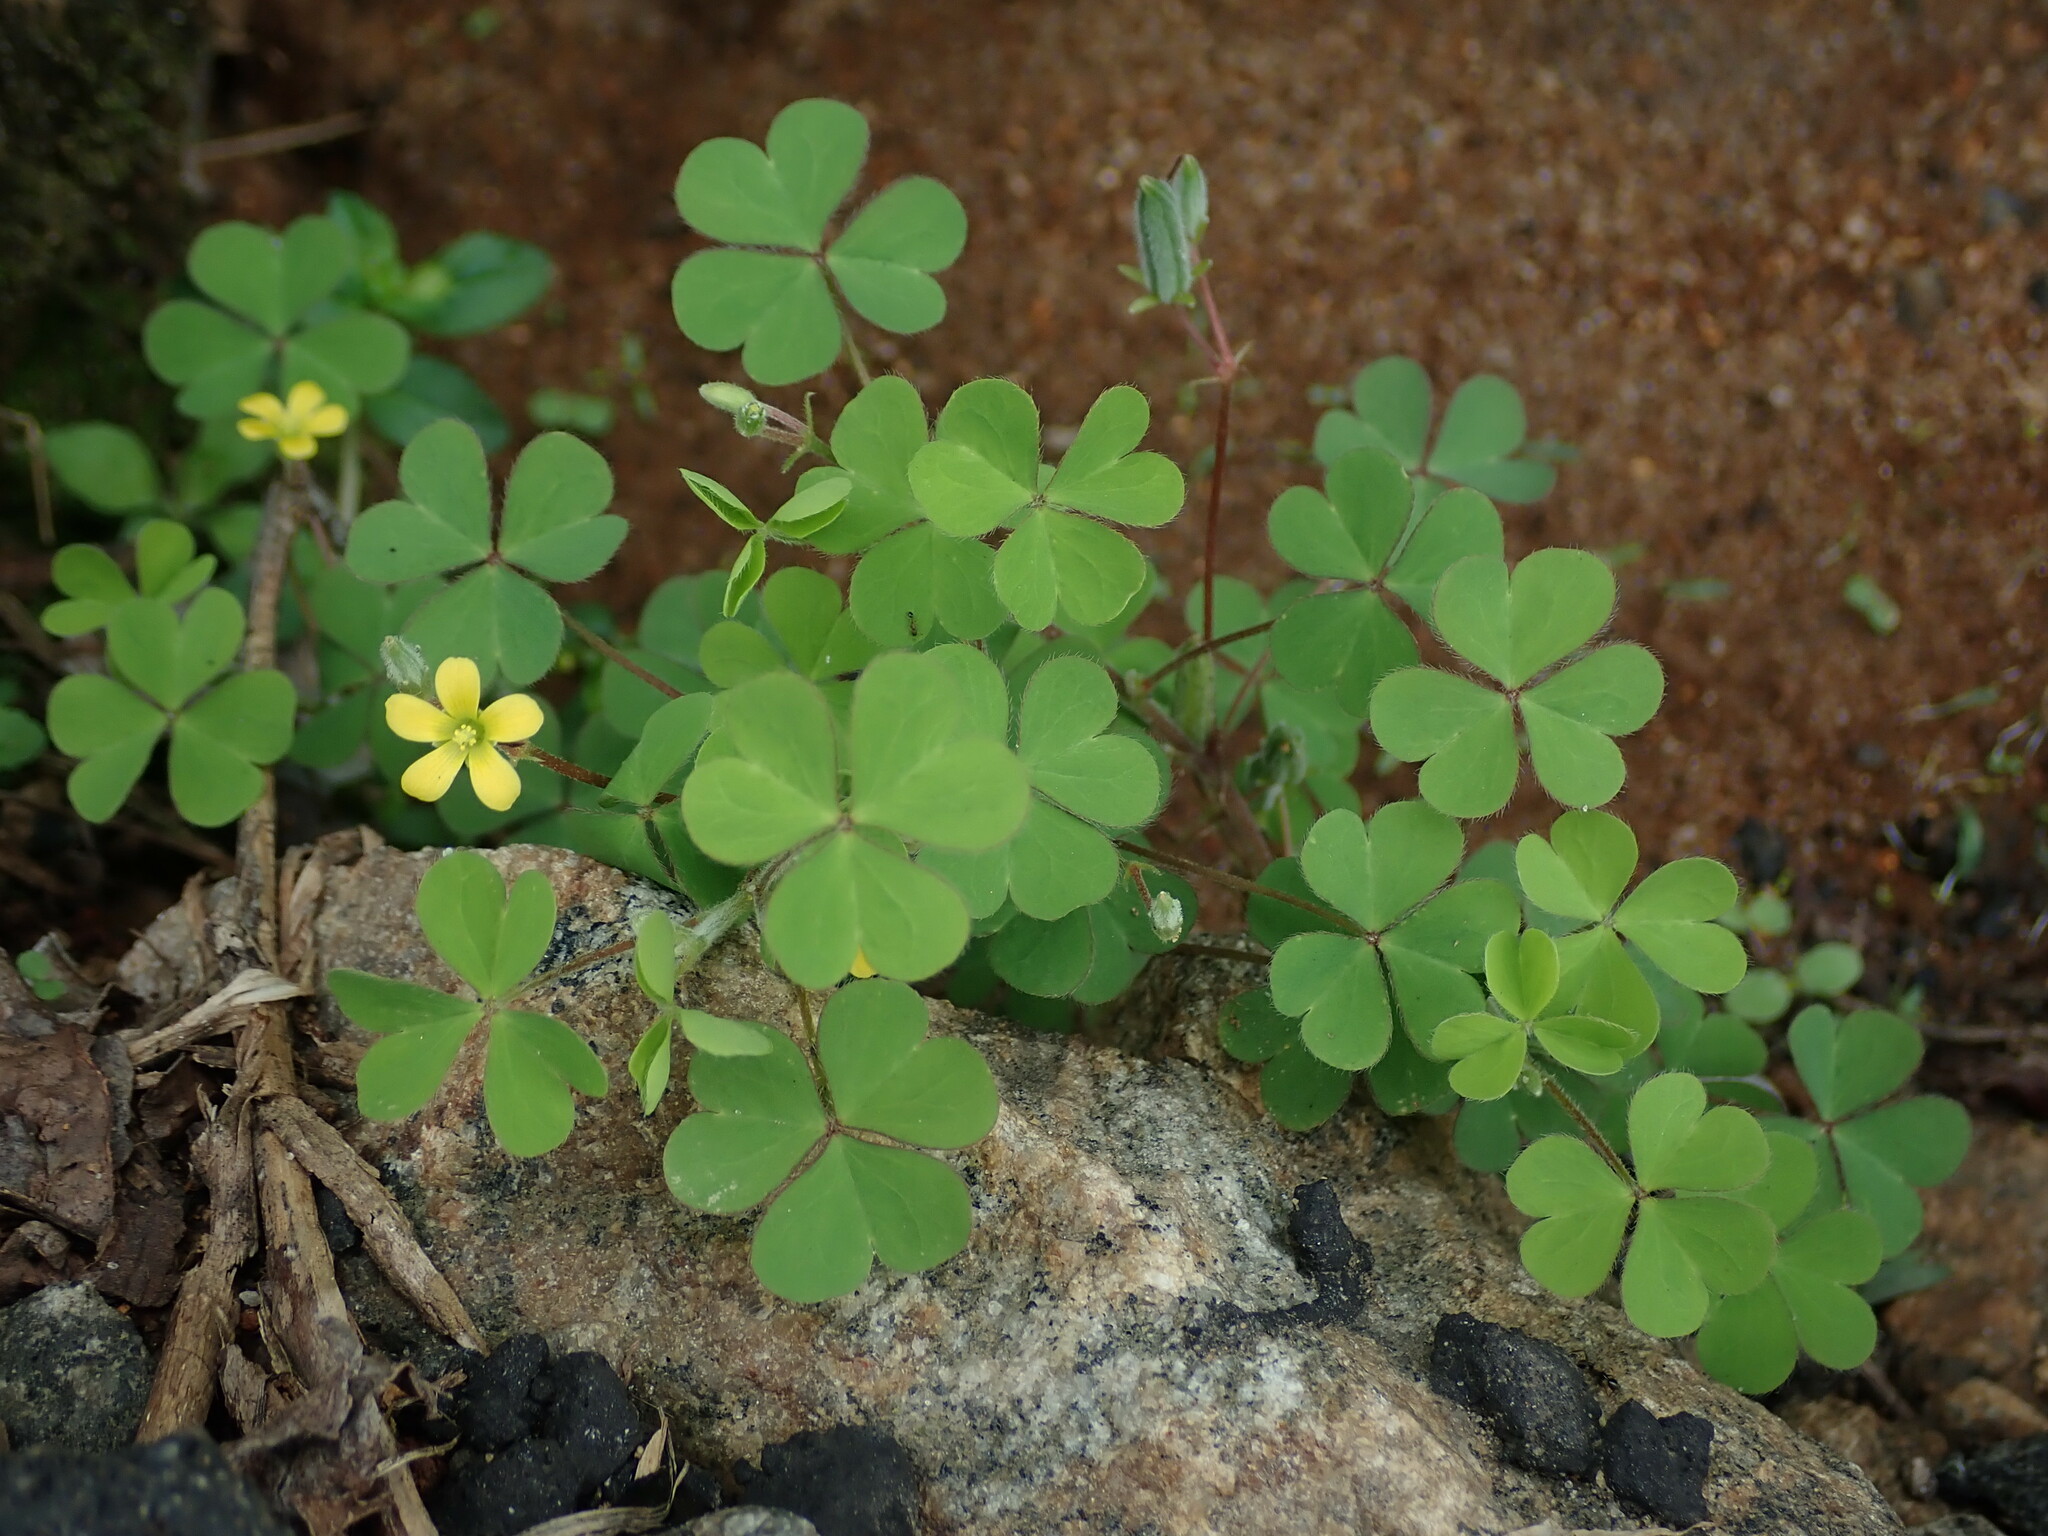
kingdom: Plantae
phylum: Tracheophyta
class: Magnoliopsida
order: Oxalidales
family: Oxalidaceae
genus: Oxalis
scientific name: Oxalis corniculata
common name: Procumbent yellow-sorrel
